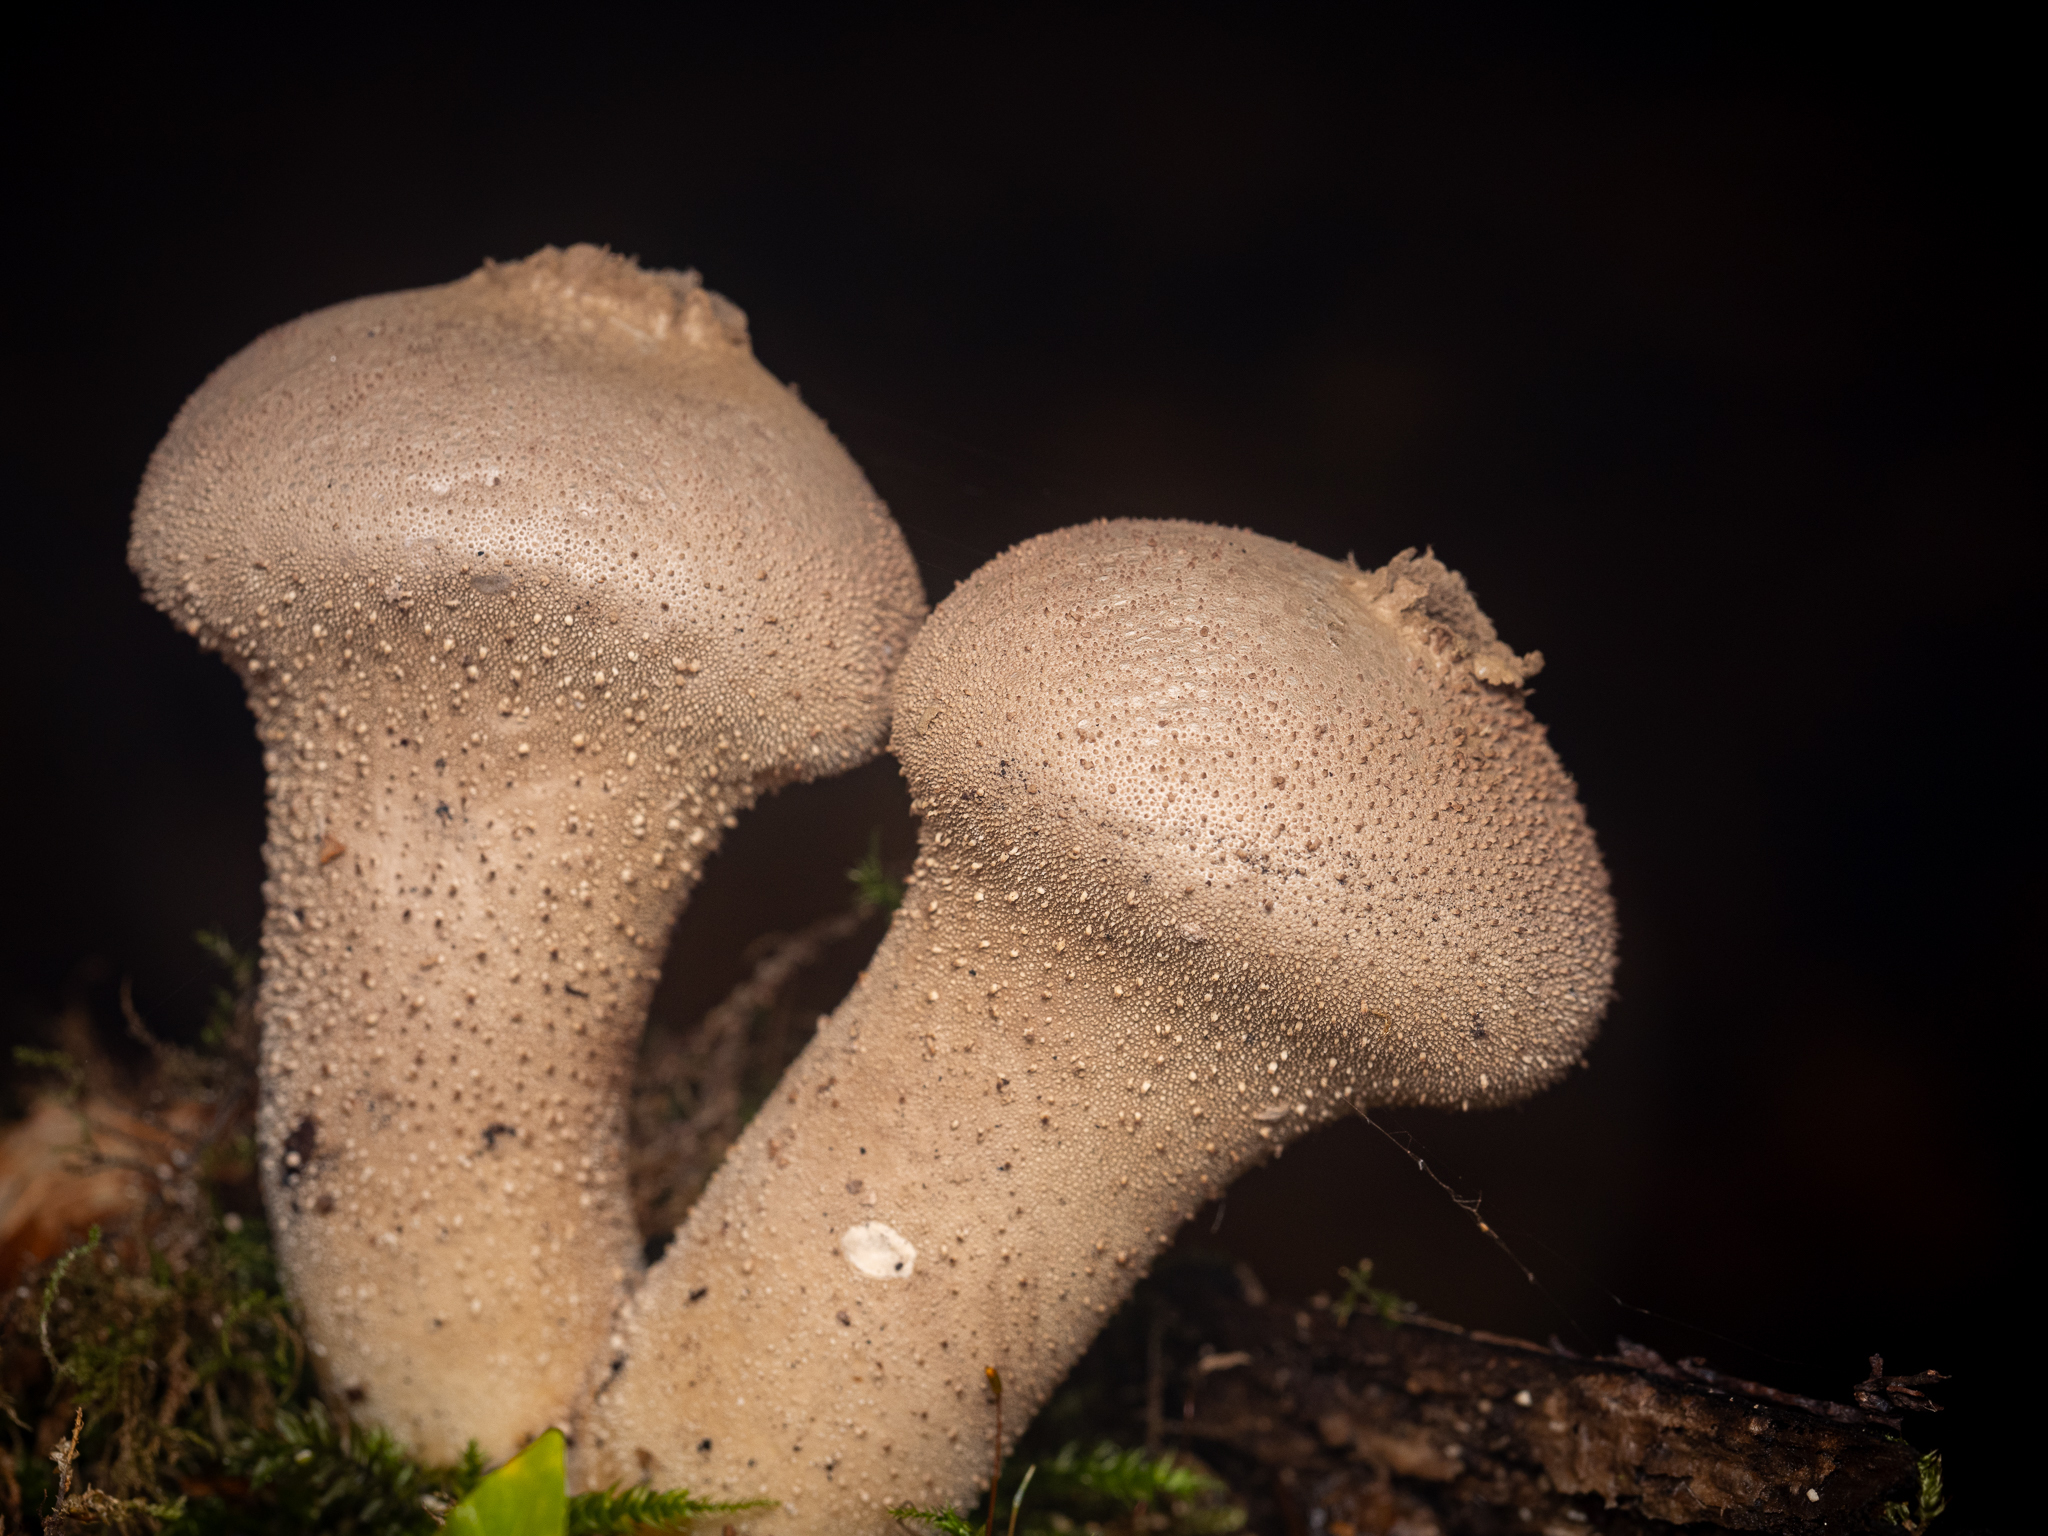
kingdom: Fungi
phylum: Basidiomycota
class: Agaricomycetes
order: Agaricales
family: Lycoperdaceae
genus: Lycoperdon
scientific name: Lycoperdon perlatum
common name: Common puffball
